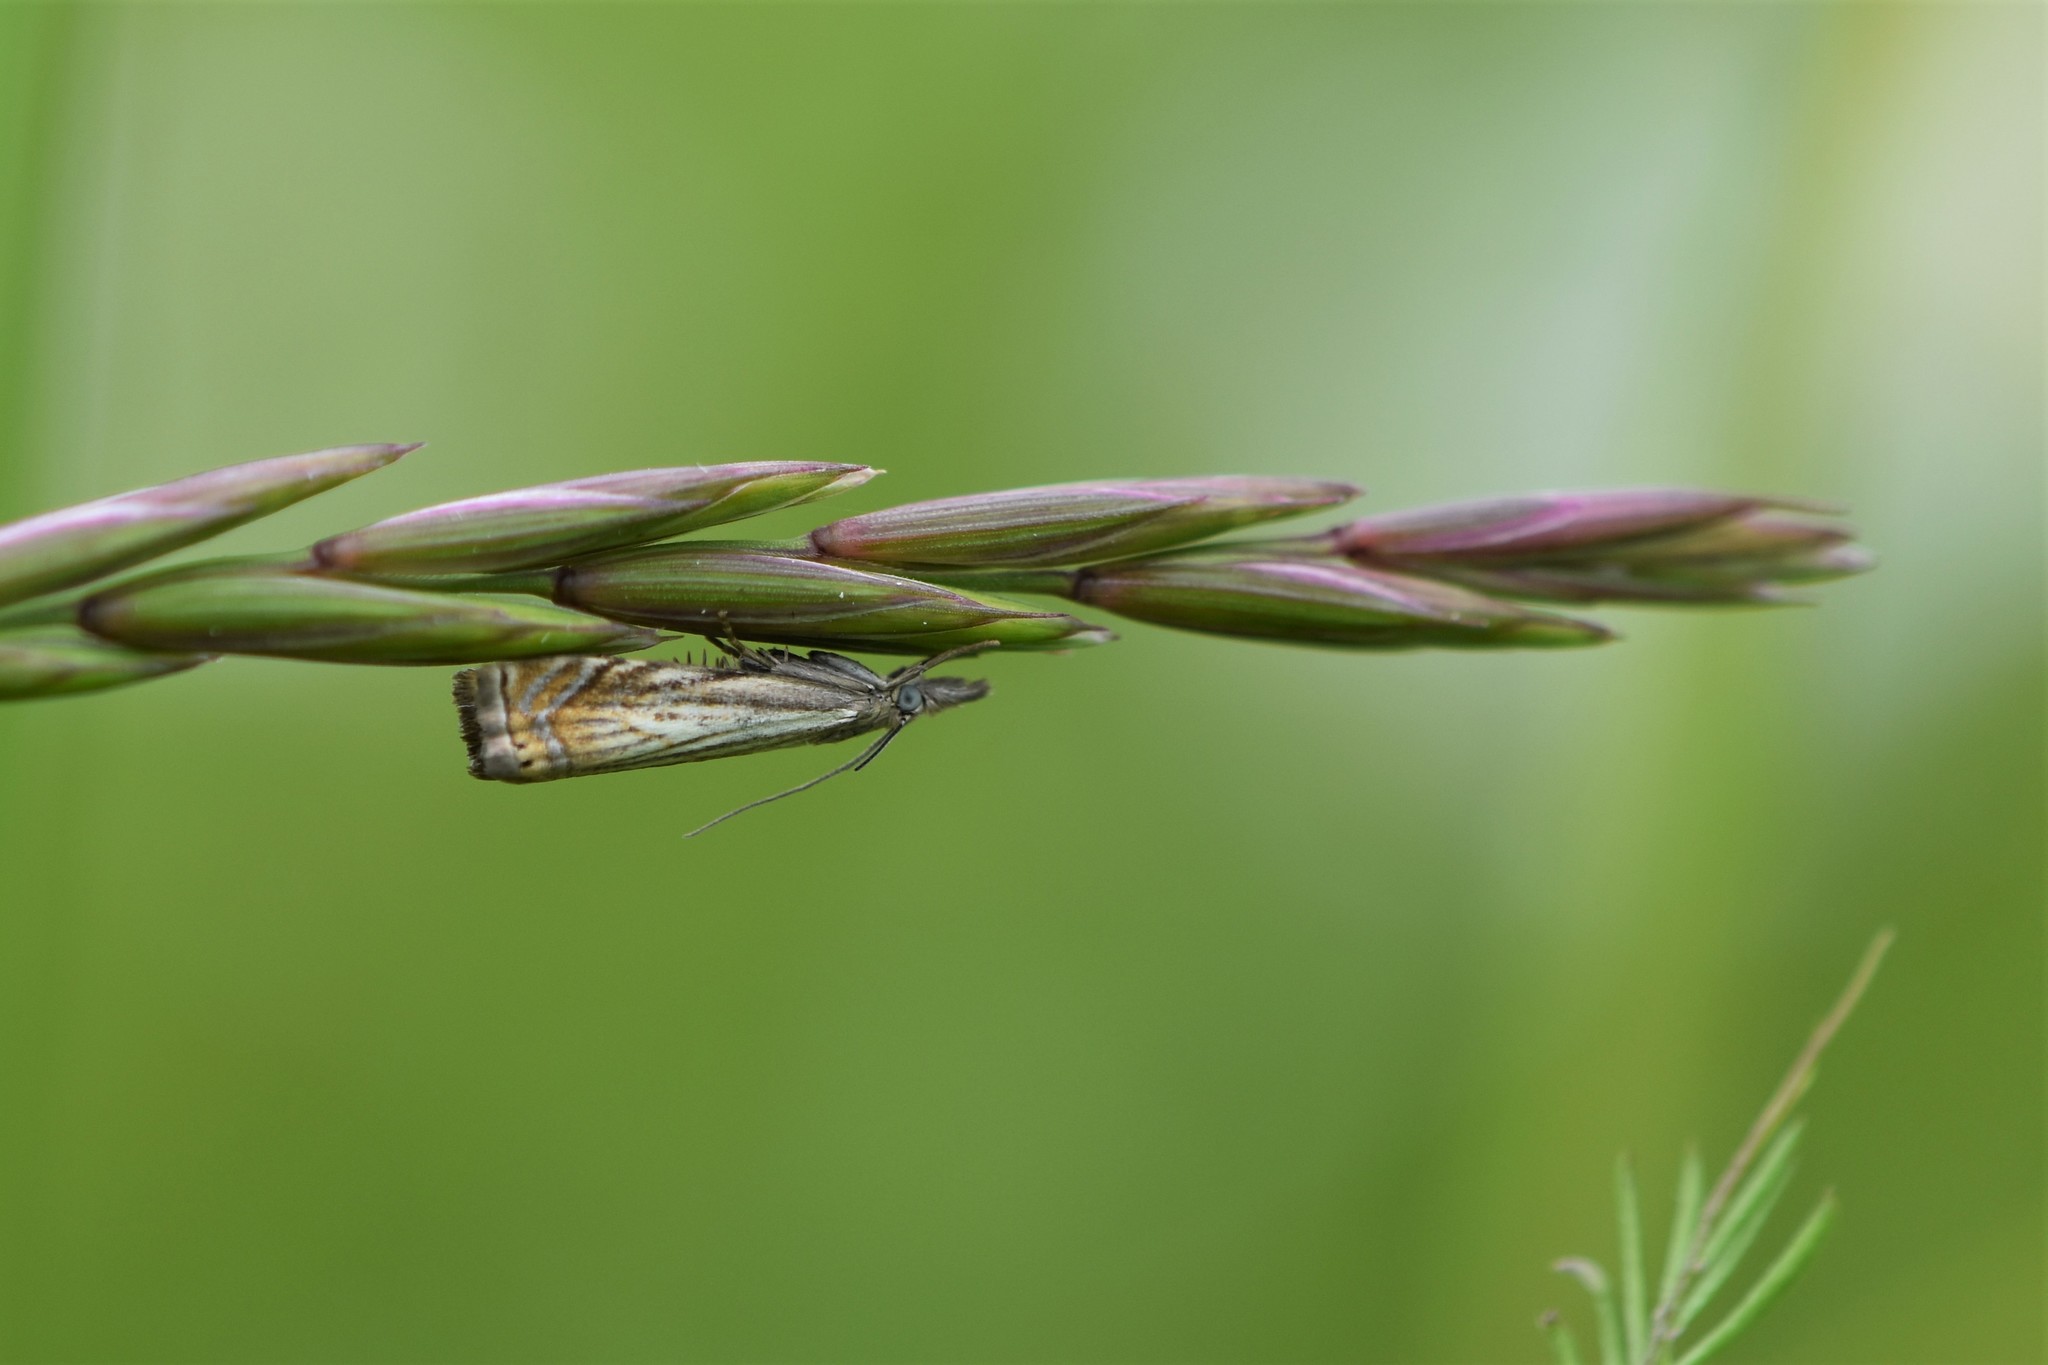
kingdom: Animalia
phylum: Arthropoda
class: Insecta
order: Lepidoptera
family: Crambidae
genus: Chrysoteuchia
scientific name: Chrysoteuchia topiarius
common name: Topiary grass-veneer
